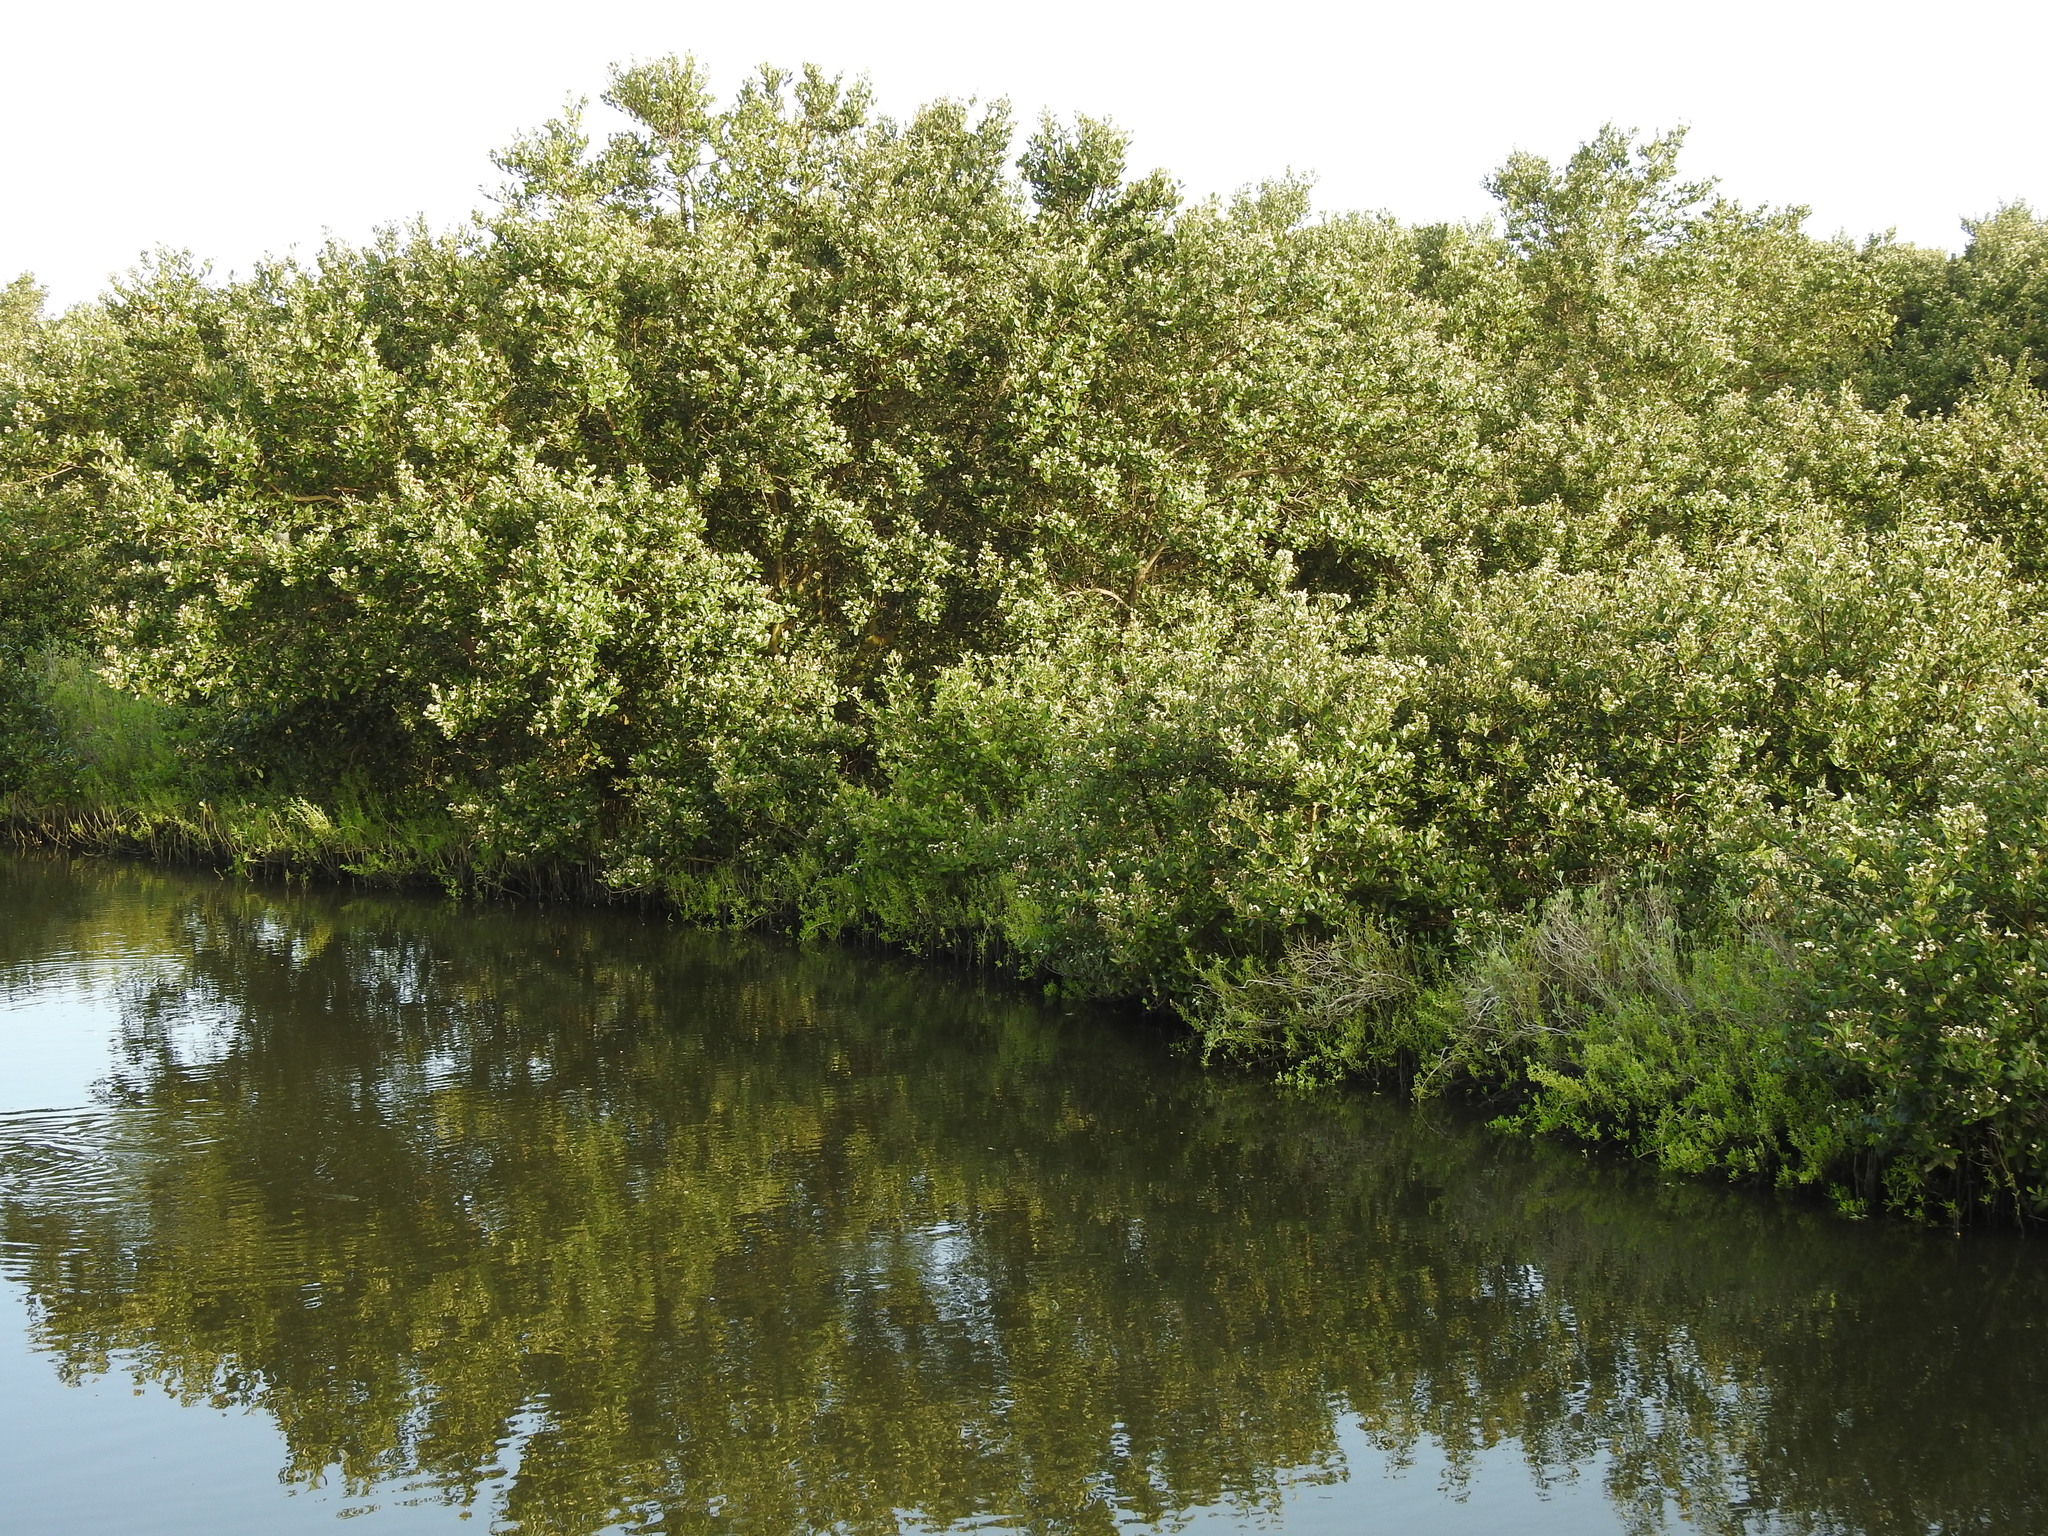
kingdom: Plantae
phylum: Tracheophyta
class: Magnoliopsida
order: Lamiales
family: Acanthaceae
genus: Avicennia
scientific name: Avicennia germinans
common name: Black mangrove
